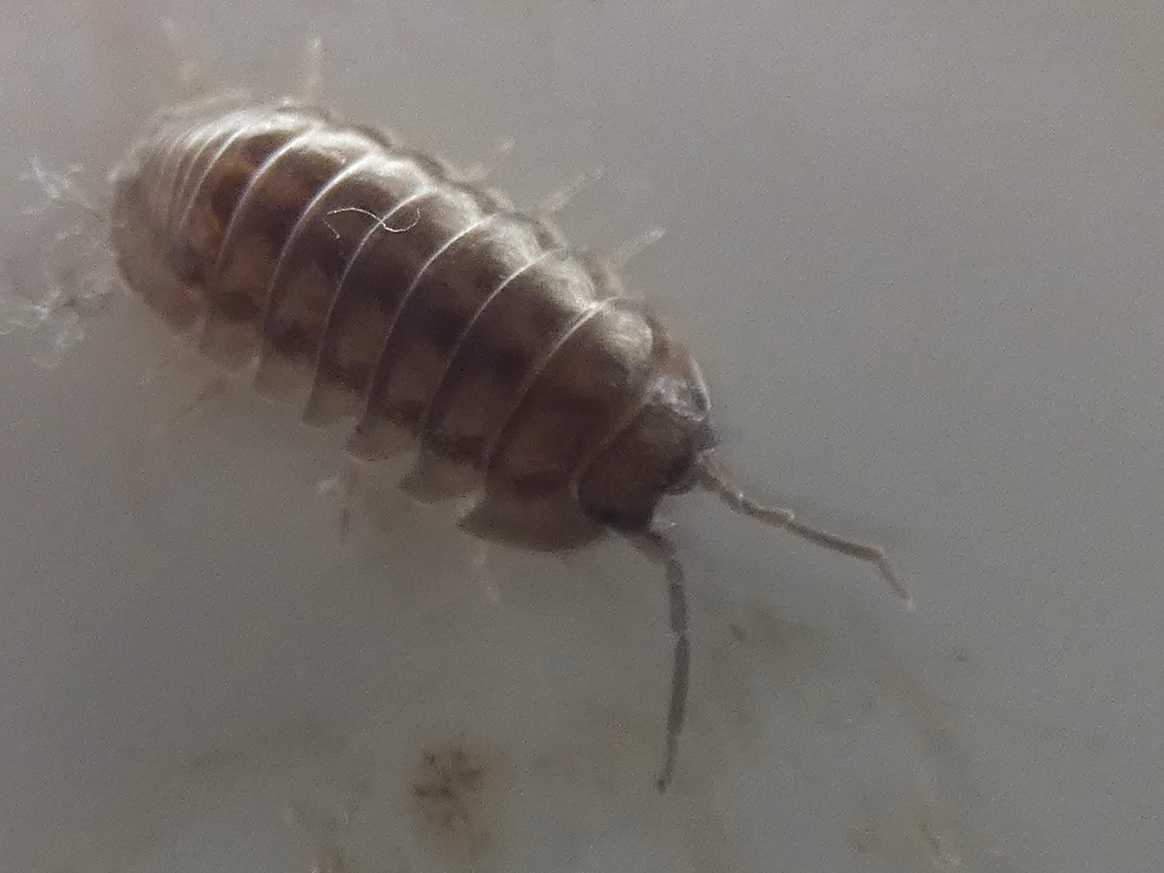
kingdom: Animalia
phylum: Arthropoda
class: Malacostraca
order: Isopoda
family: Armadillidiidae
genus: Armadillidium
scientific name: Armadillidium nasatum
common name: Isopod
